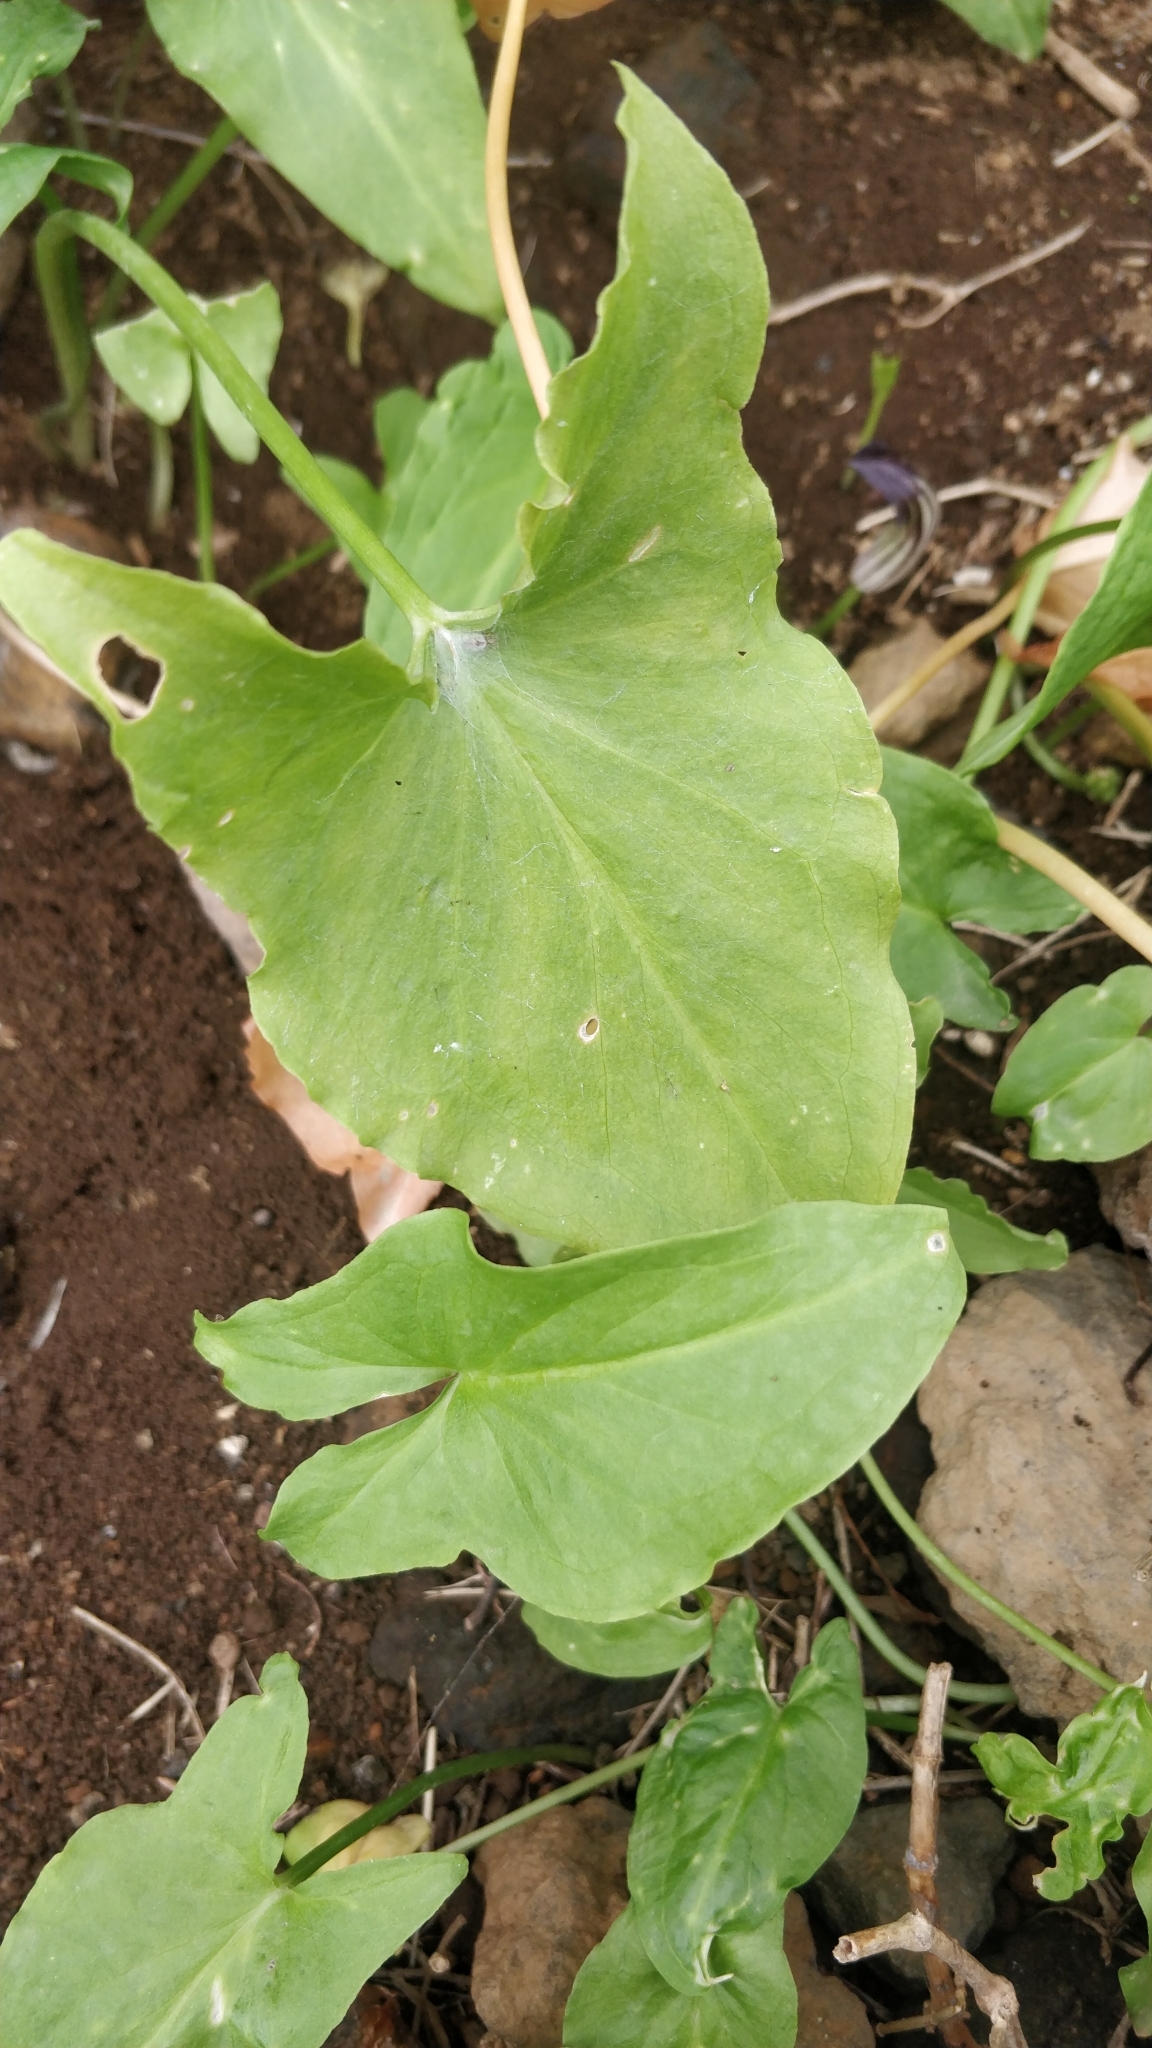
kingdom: Plantae
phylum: Tracheophyta
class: Liliopsida
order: Alismatales
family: Araceae
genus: Arisarum
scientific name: Arisarum simorrhinum
